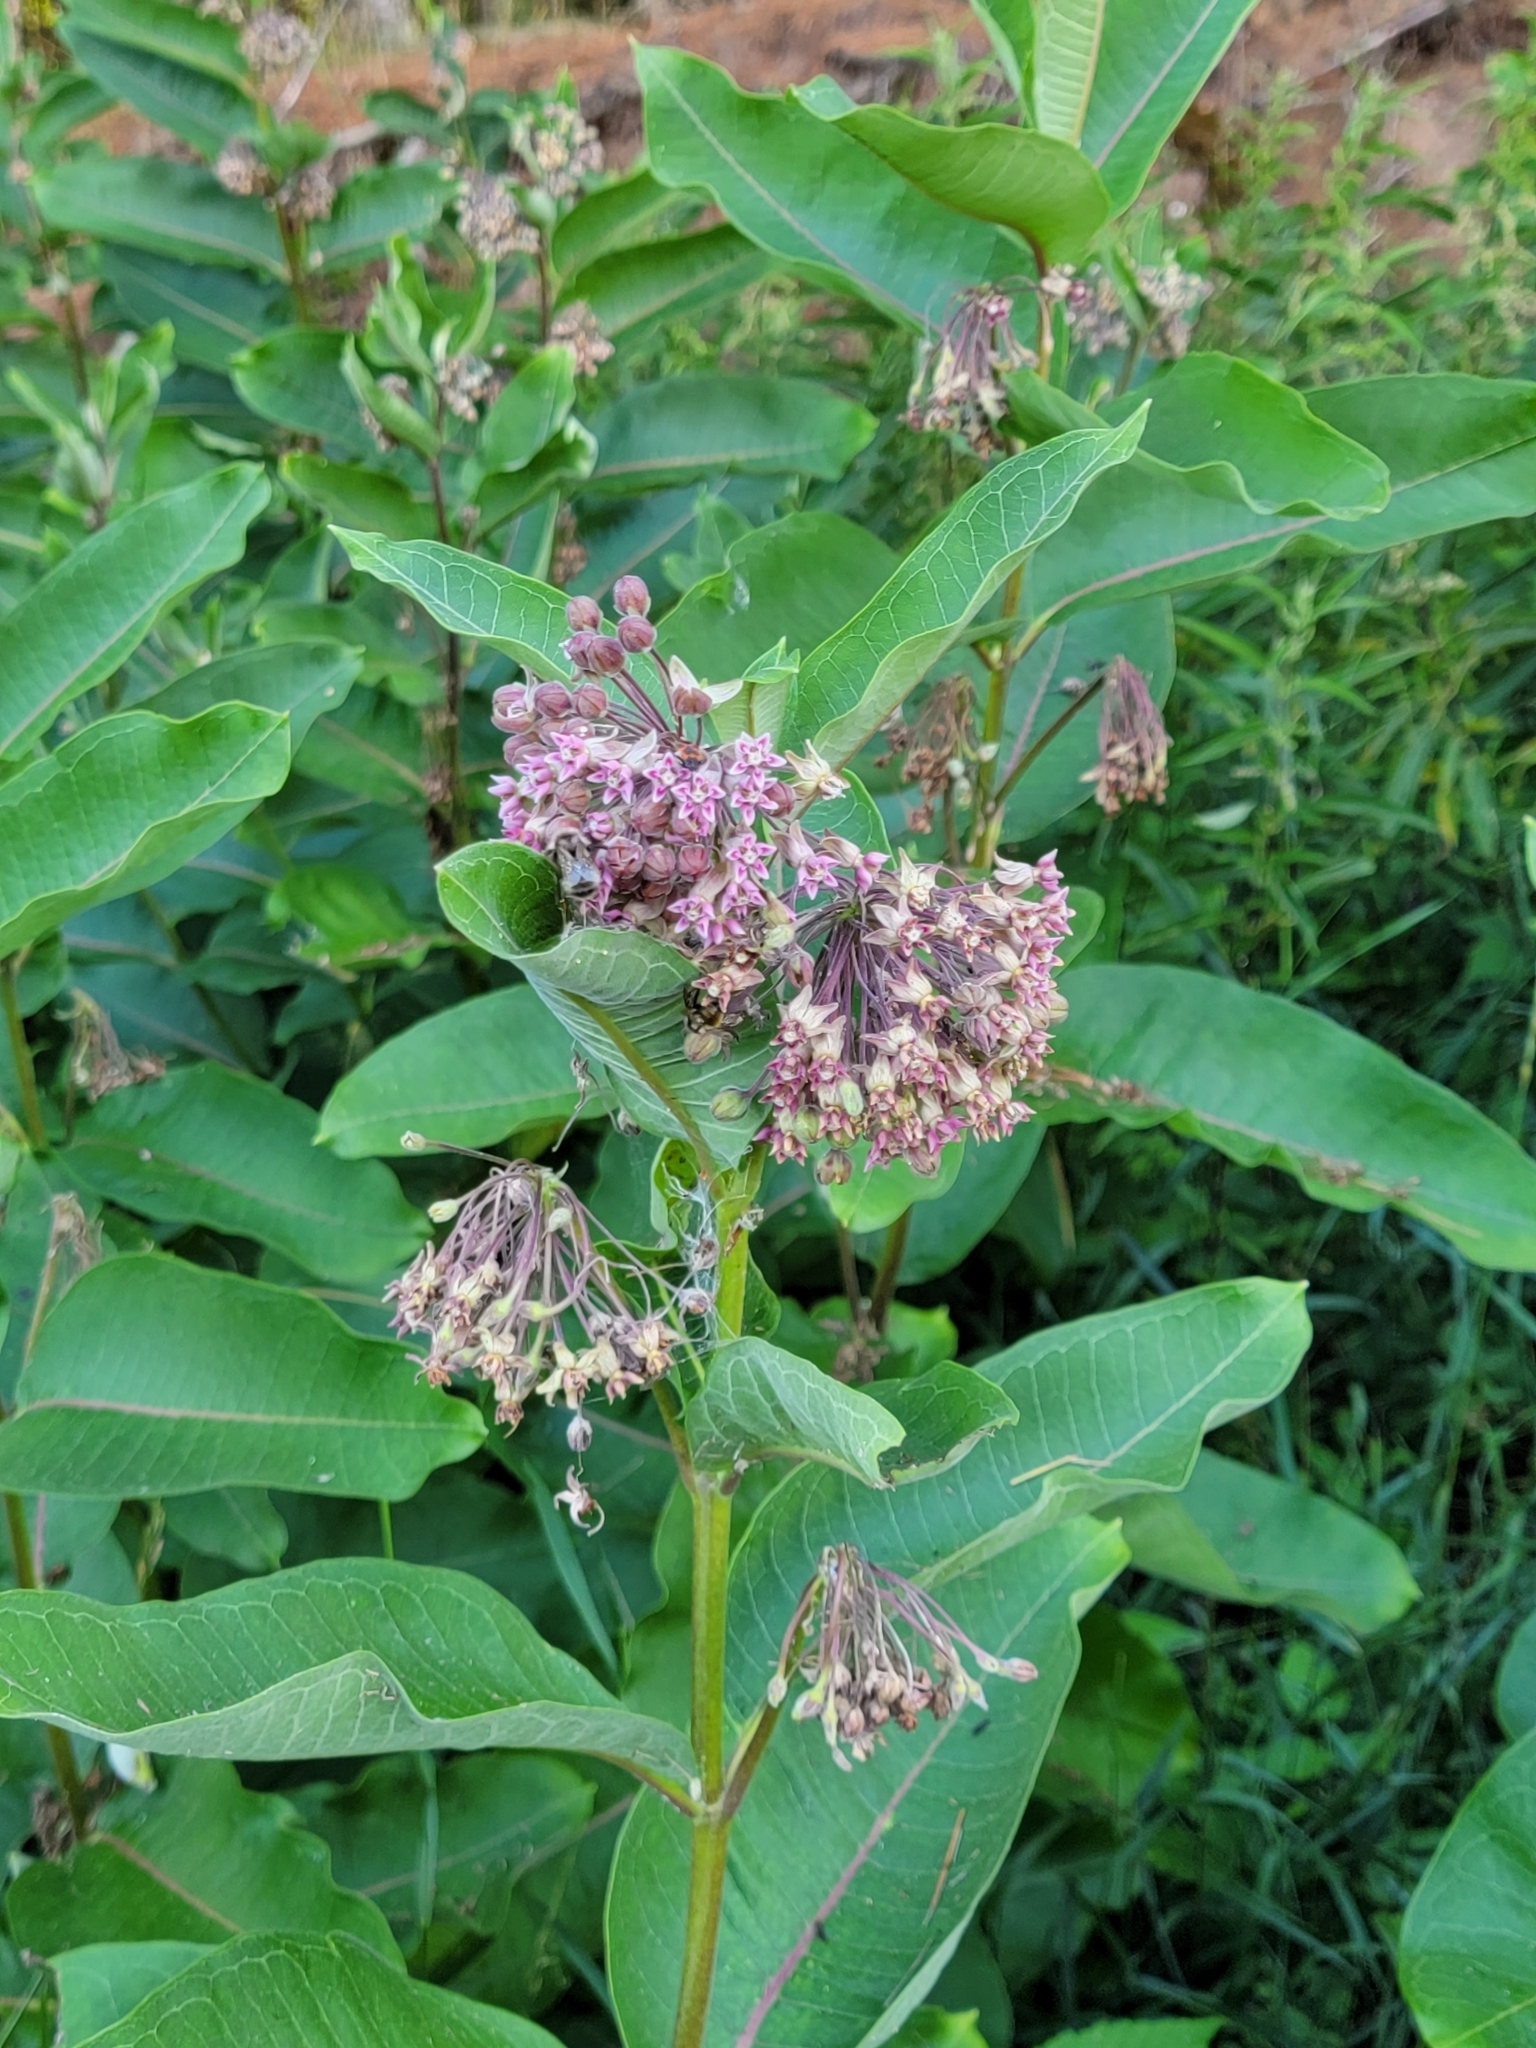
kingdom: Plantae
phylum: Tracheophyta
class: Magnoliopsida
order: Gentianales
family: Apocynaceae
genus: Asclepias
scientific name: Asclepias syriaca
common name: Common milkweed
